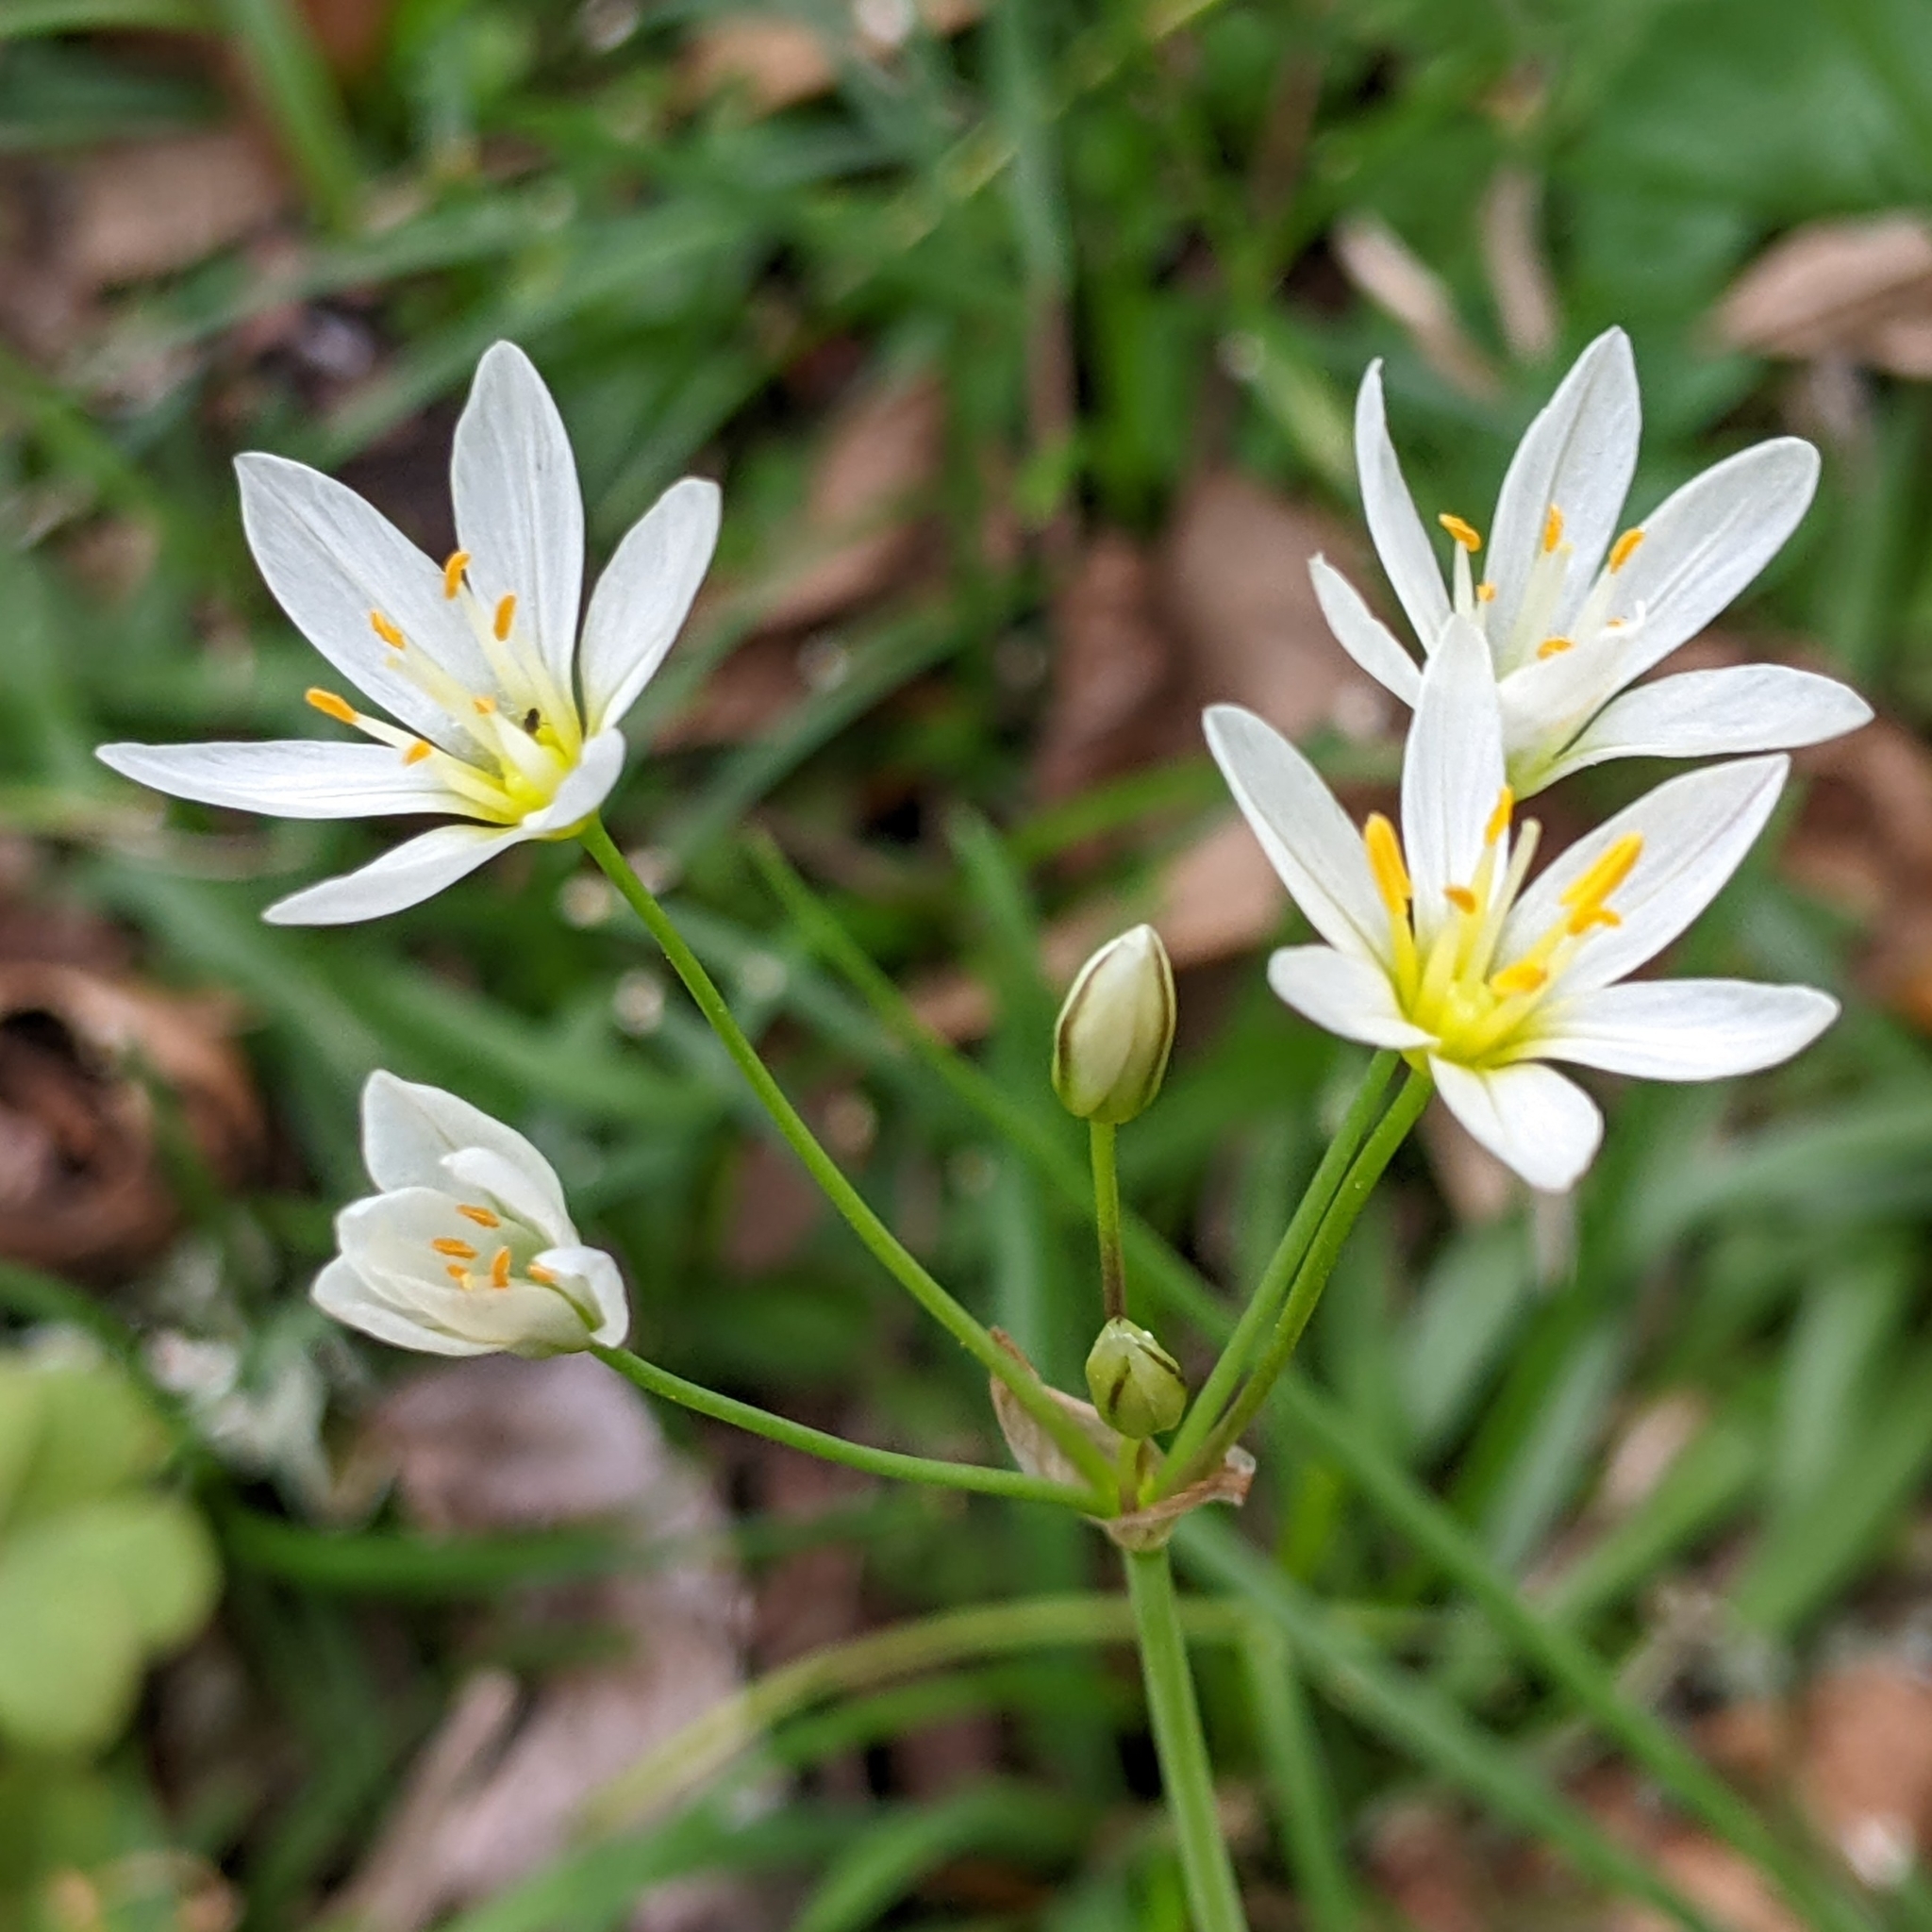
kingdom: Plantae
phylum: Tracheophyta
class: Liliopsida
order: Asparagales
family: Amaryllidaceae
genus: Nothoscordum
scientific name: Nothoscordum bivalve
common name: Crow-poison
